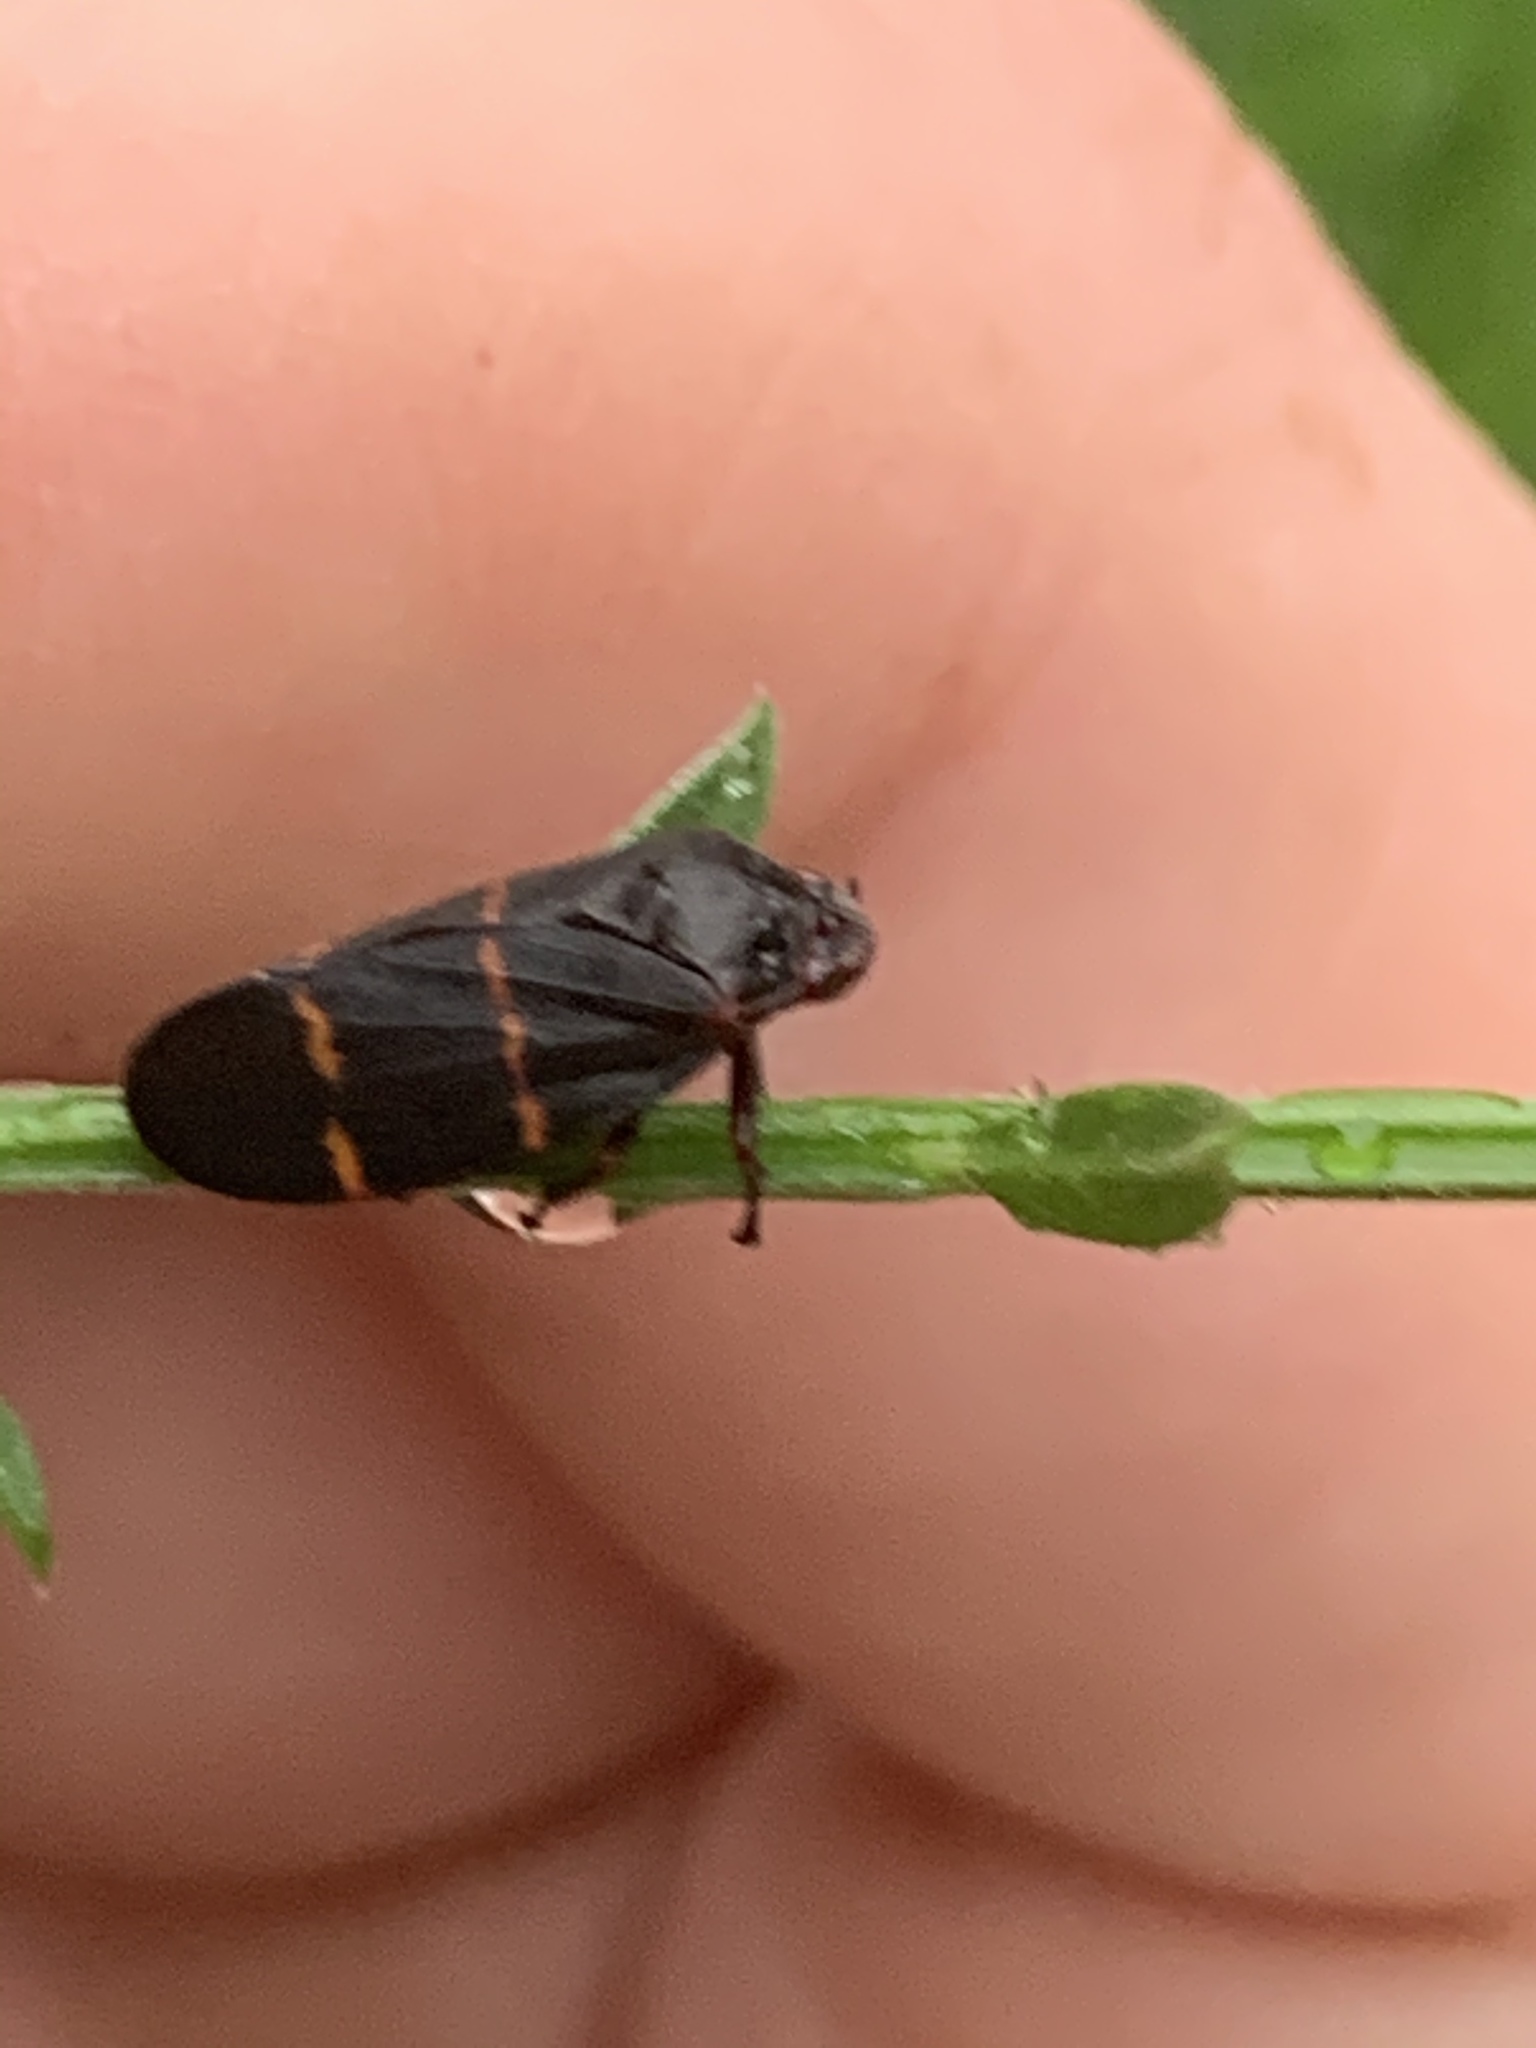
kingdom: Animalia
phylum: Arthropoda
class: Insecta
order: Hemiptera
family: Cercopidae
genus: Prosapia
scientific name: Prosapia bicincta
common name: Twolined spittlebug
